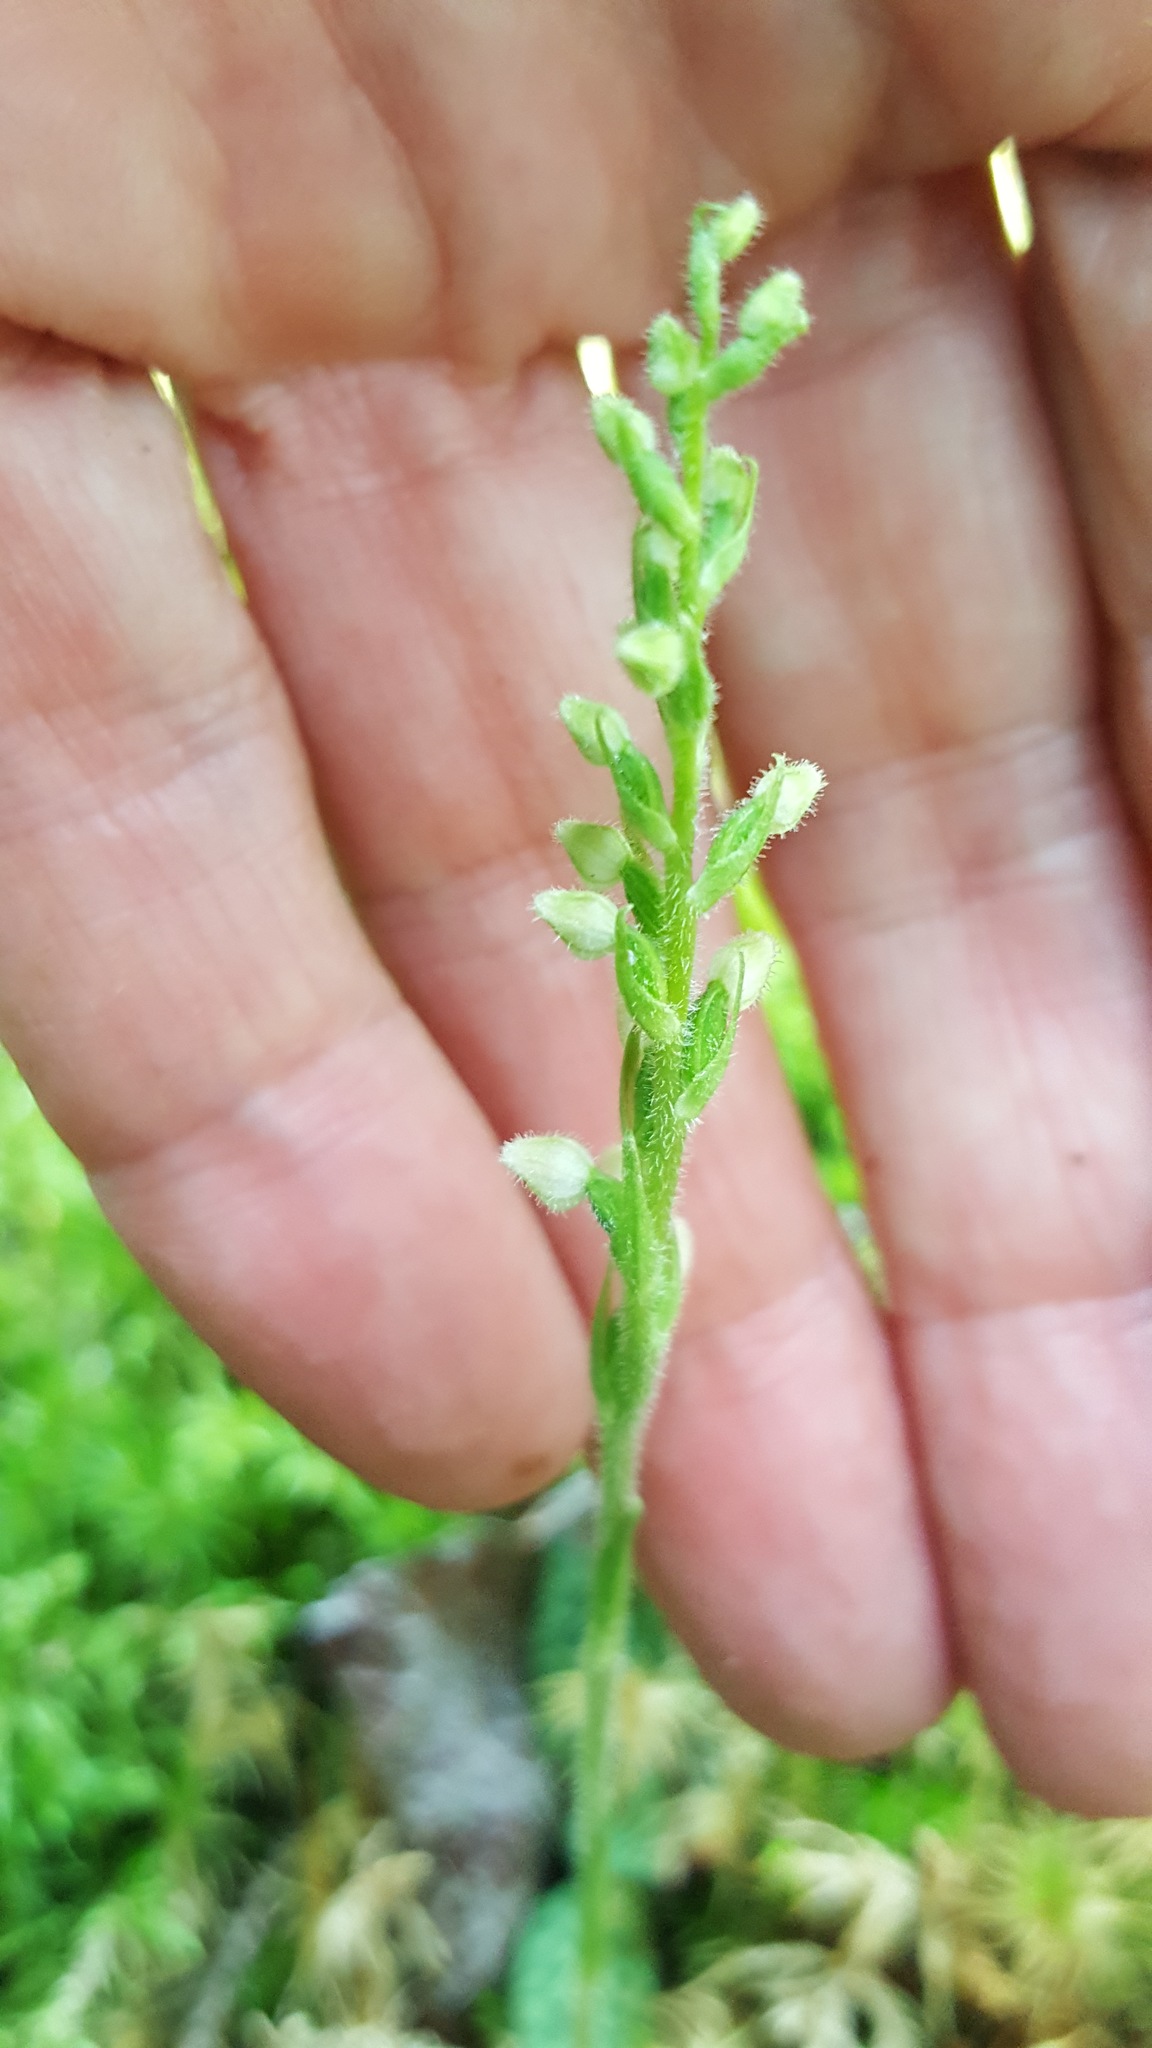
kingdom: Plantae
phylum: Tracheophyta
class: Liliopsida
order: Asparagales
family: Orchidaceae
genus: Goodyera
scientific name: Goodyera repens
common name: Creeping lady's-tresses
